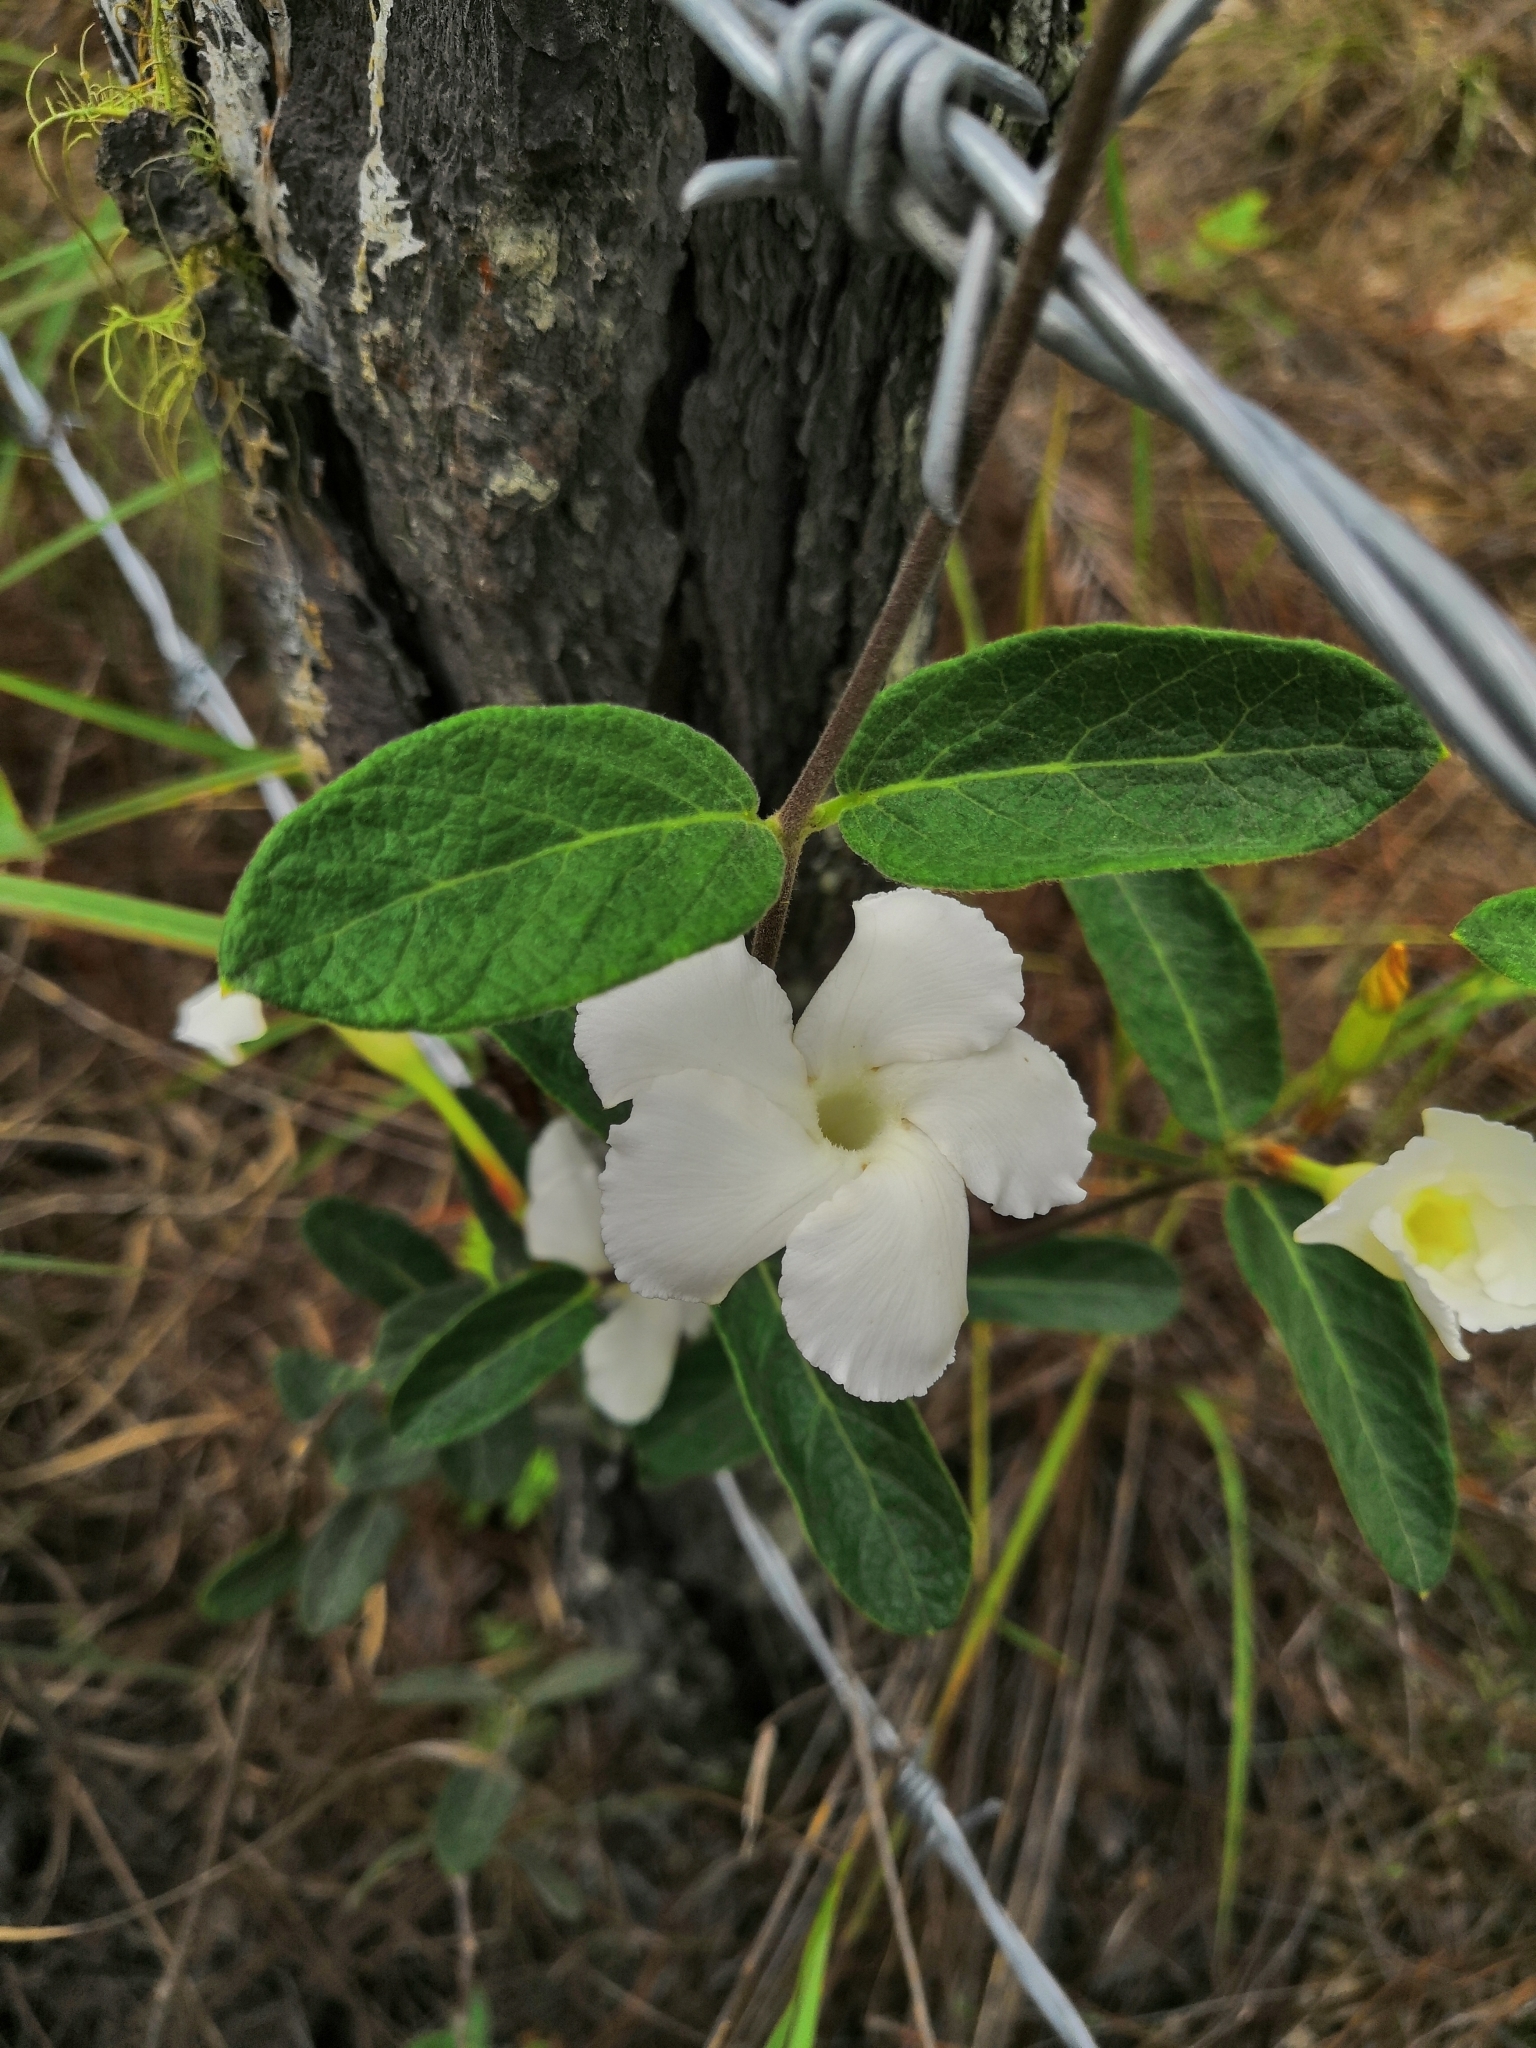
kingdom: Plantae
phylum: Tracheophyta
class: Magnoliopsida
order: Gentianales
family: Apocynaceae
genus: Mandevilla
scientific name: Mandevilla hypoleuca
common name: Davis mountain rocktrumpet
